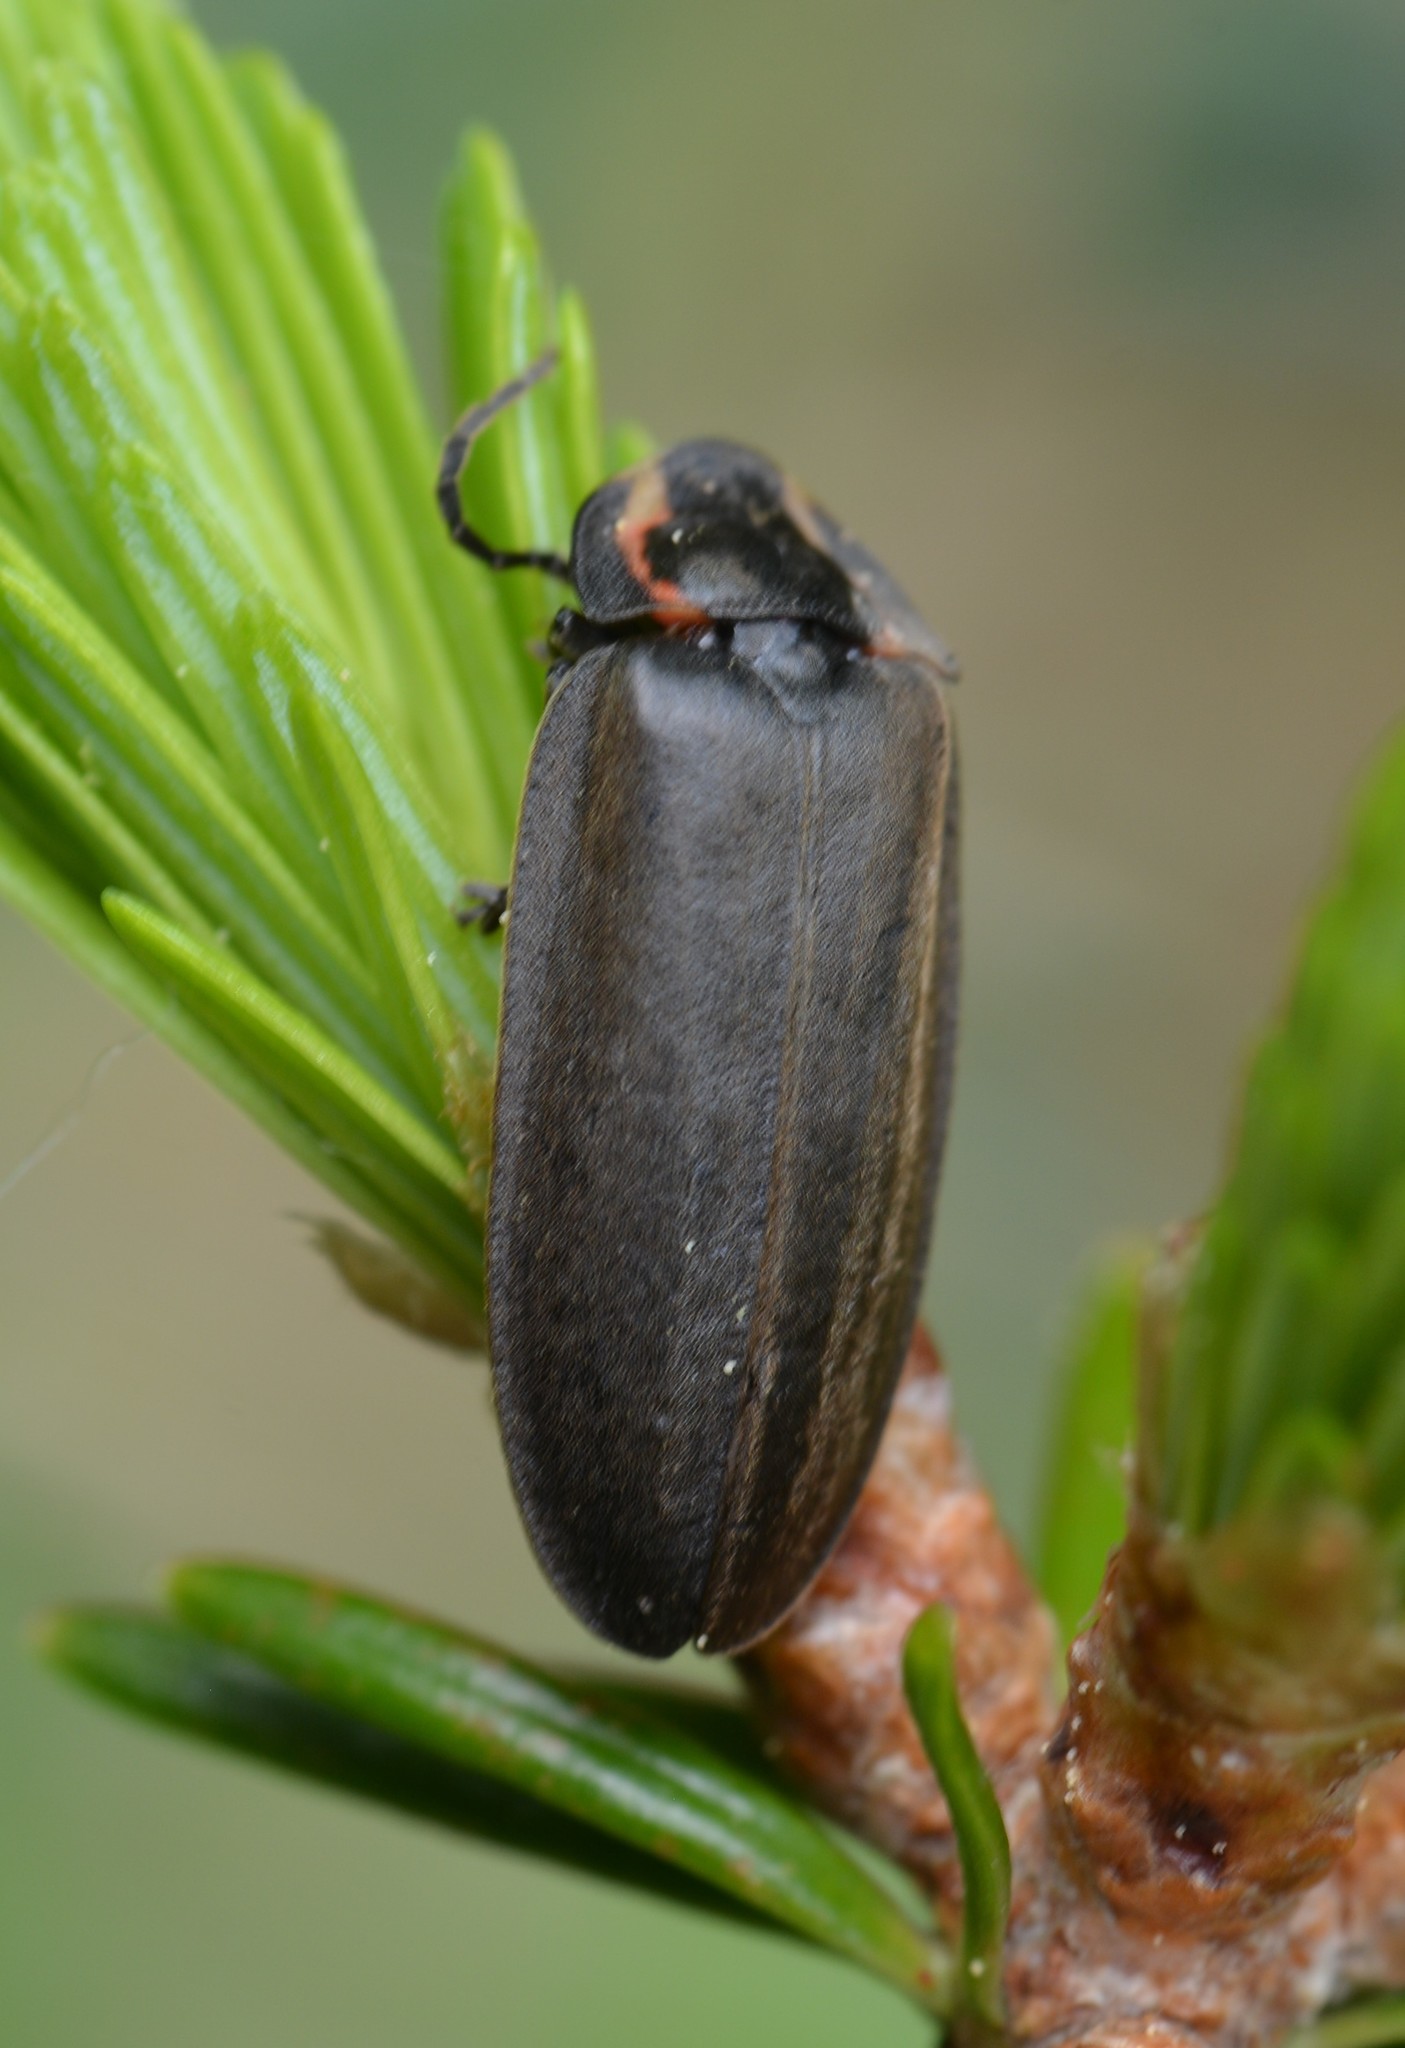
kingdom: Animalia
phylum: Arthropoda
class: Insecta
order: Coleoptera
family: Lampyridae
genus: Photinus
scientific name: Photinus corrusca
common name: Winter firefly
